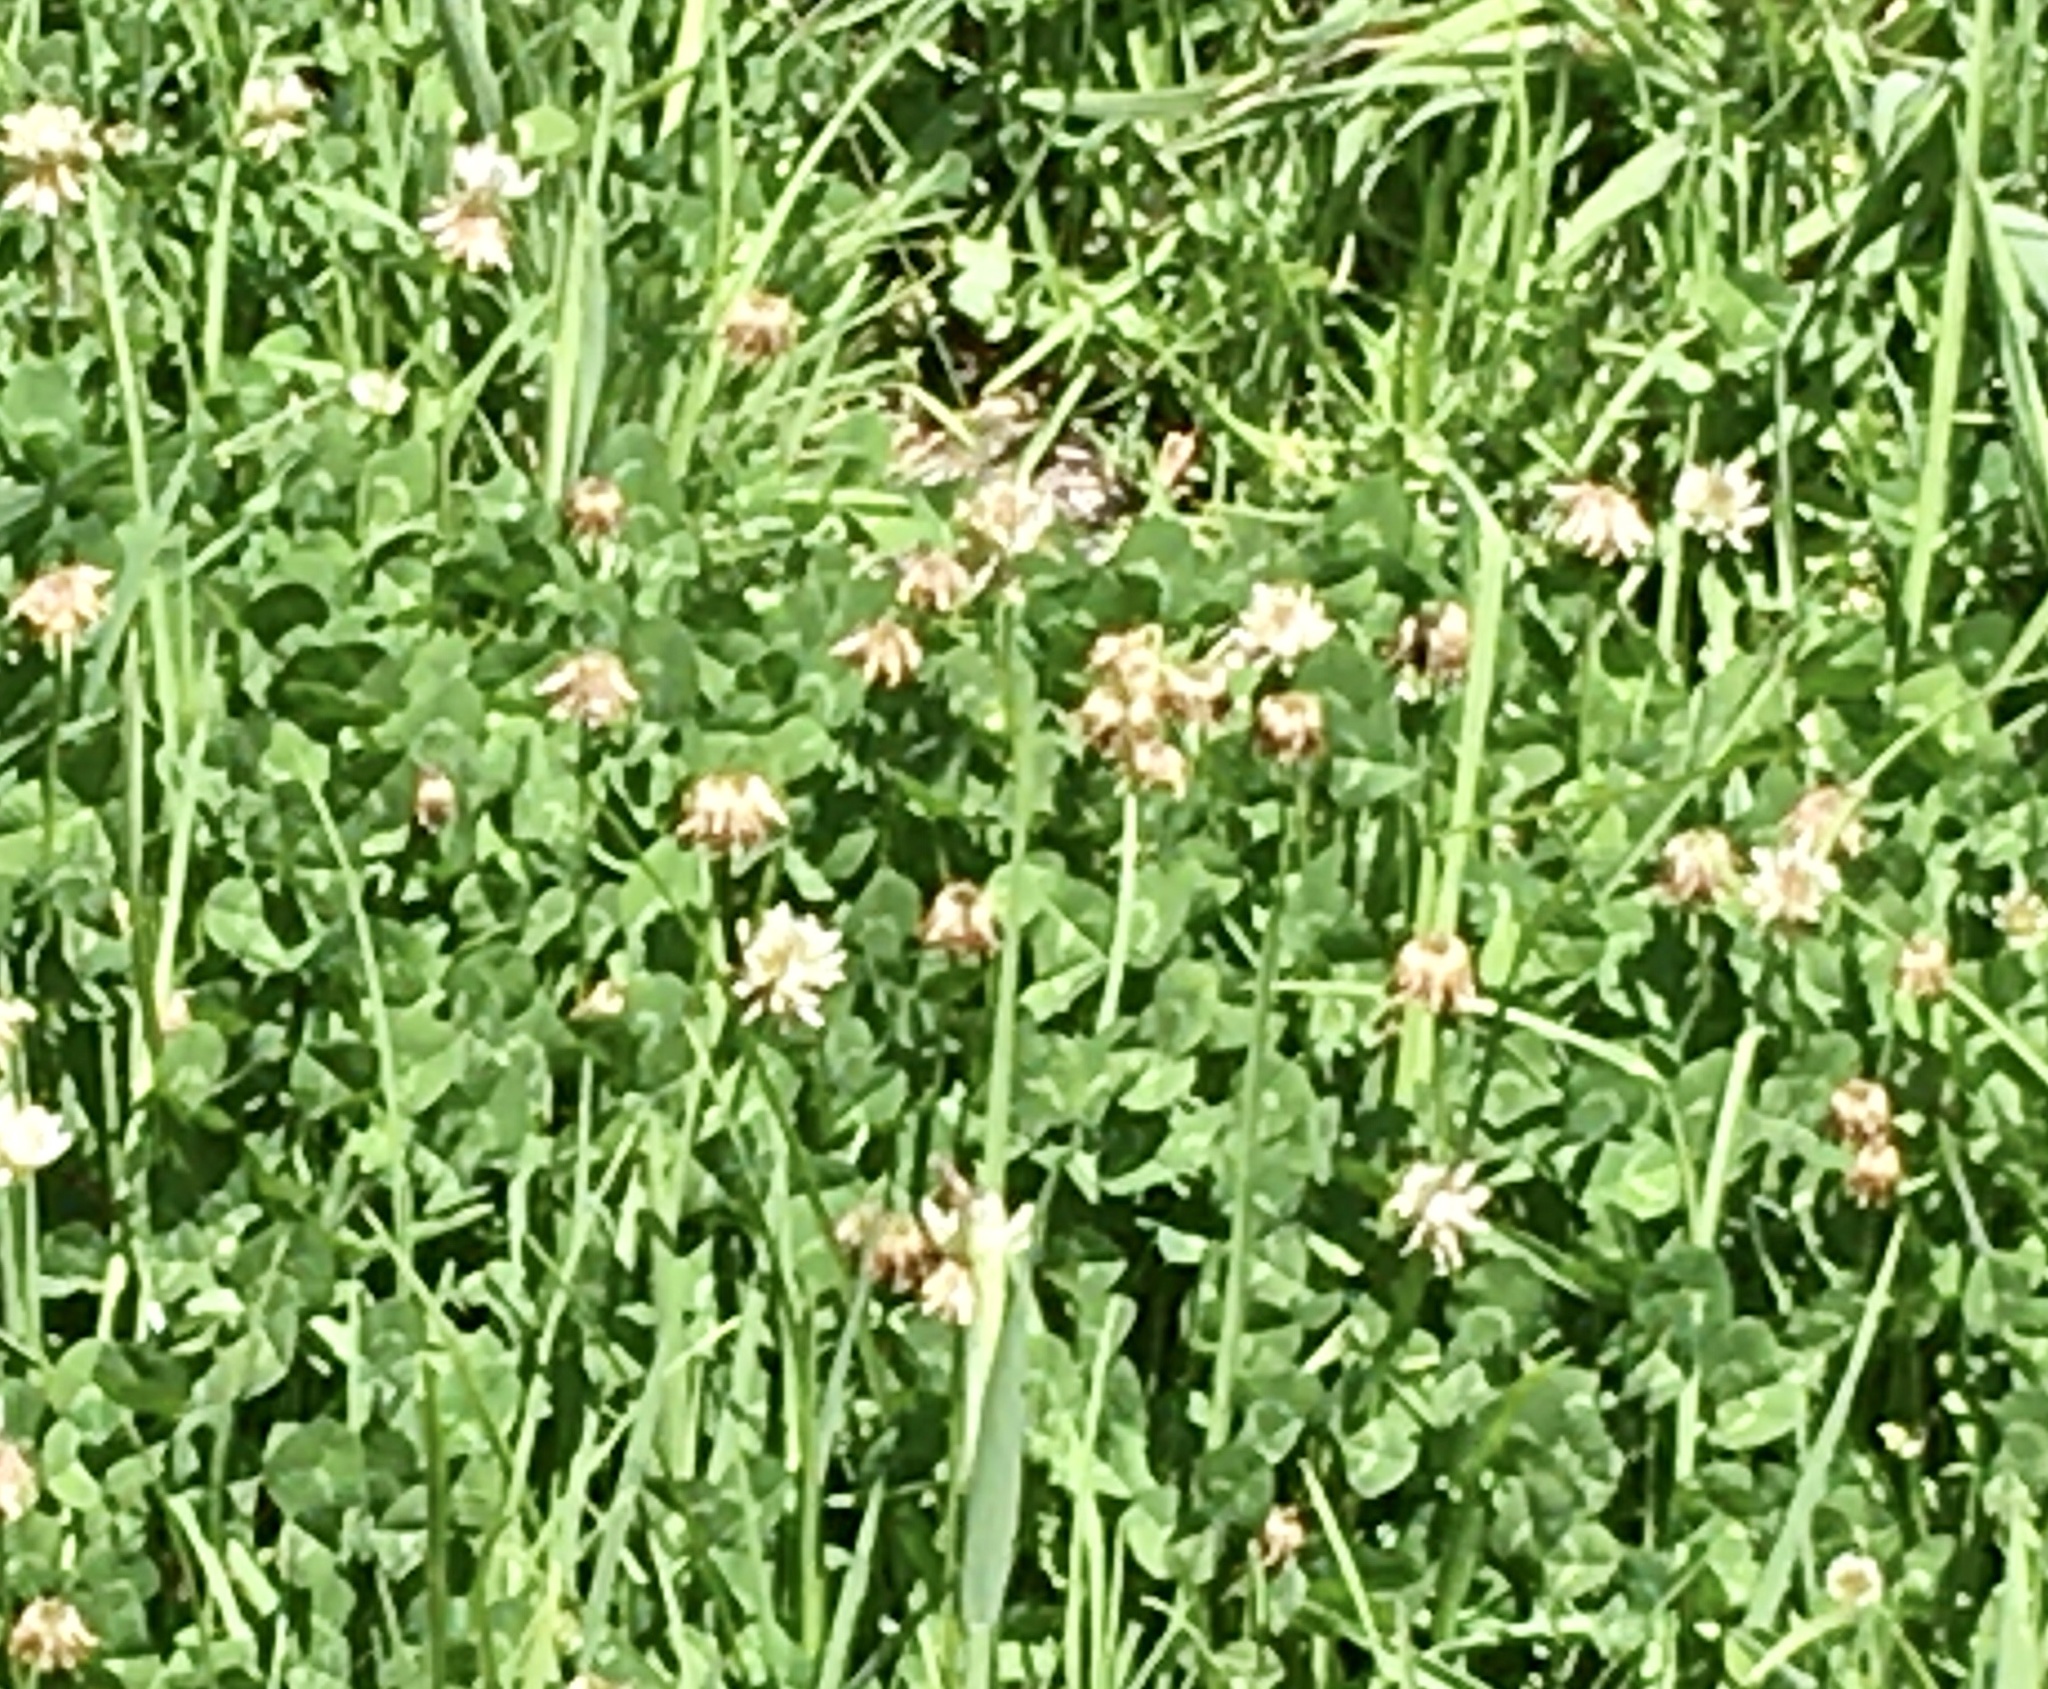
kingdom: Plantae
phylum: Tracheophyta
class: Magnoliopsida
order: Fabales
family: Fabaceae
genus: Trifolium
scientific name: Trifolium repens
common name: White clover
